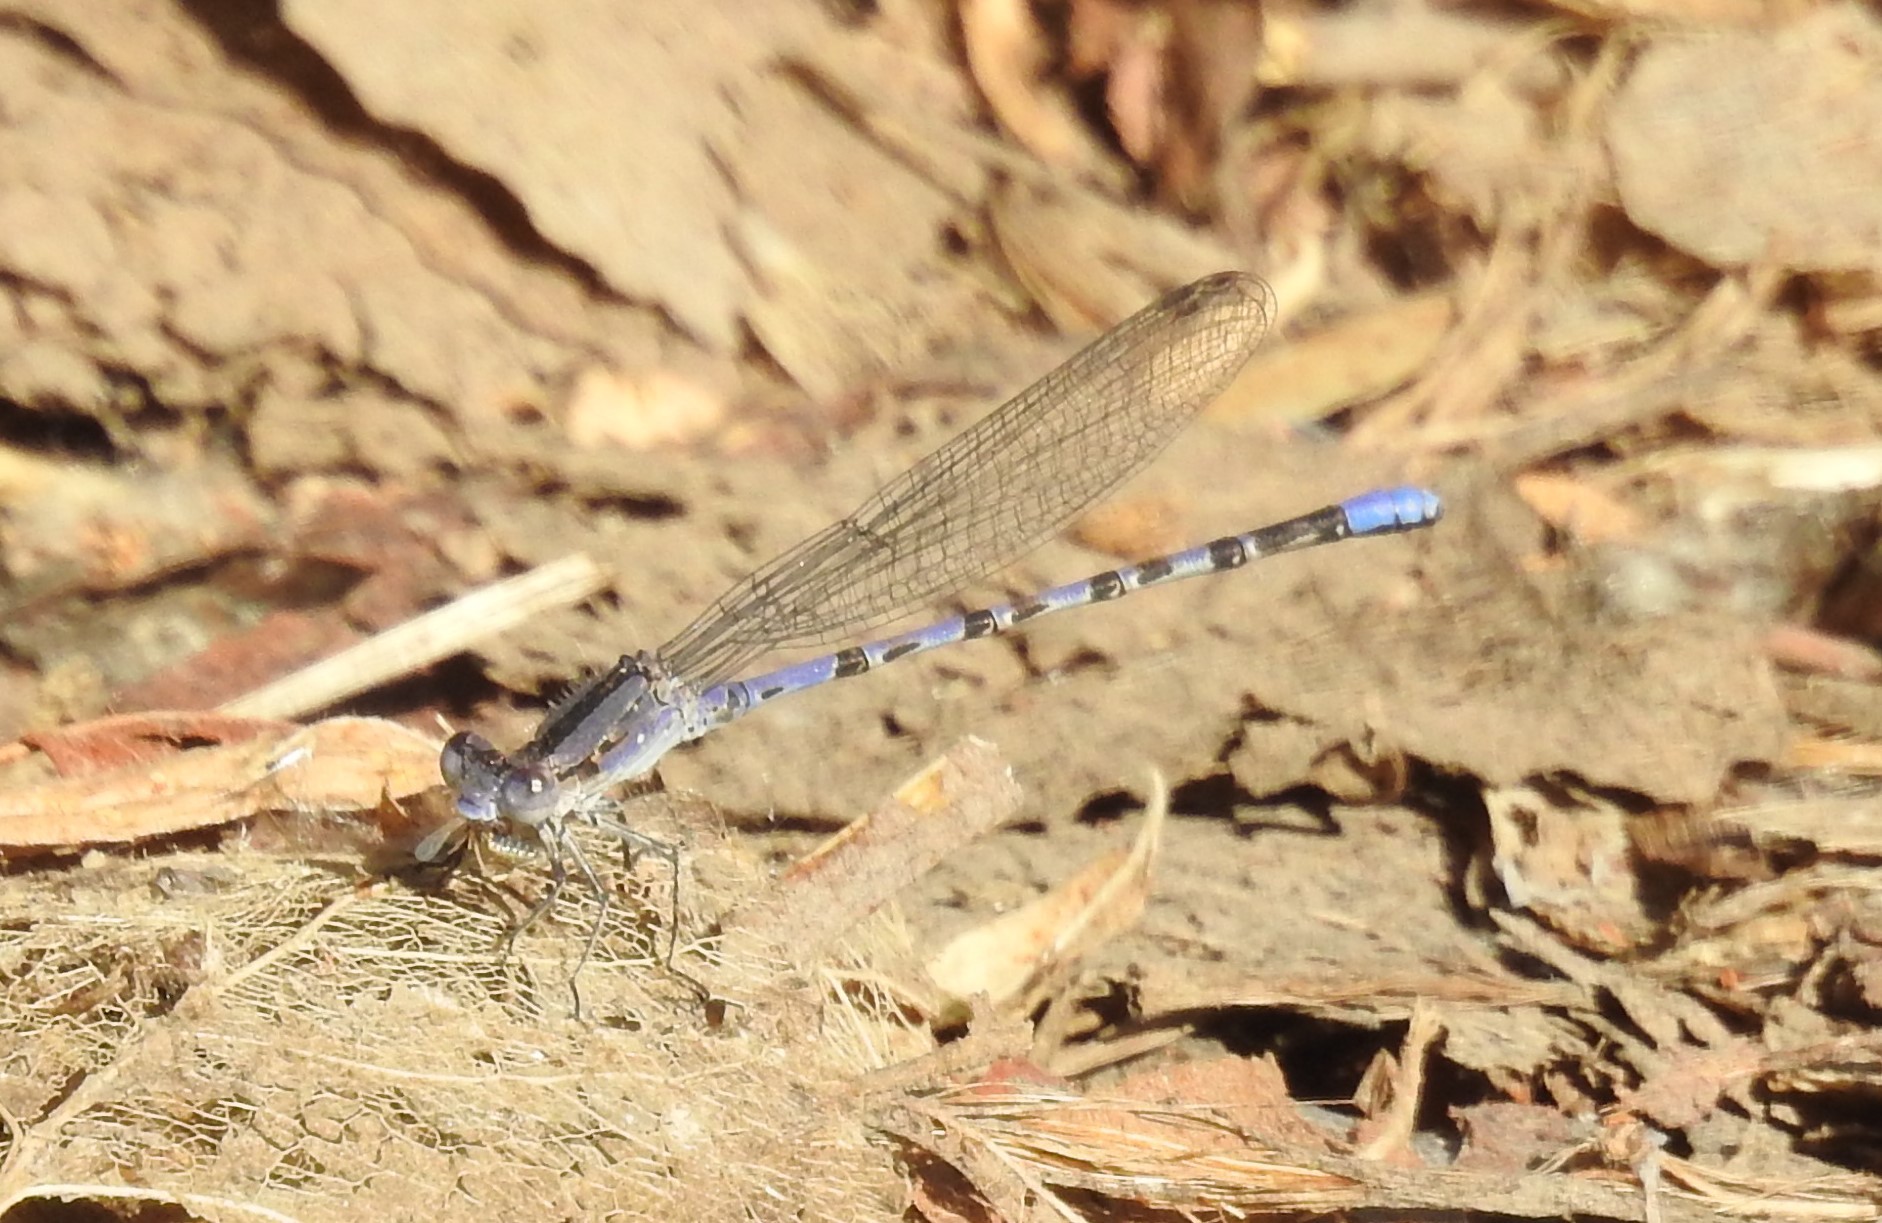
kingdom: Animalia
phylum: Arthropoda
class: Insecta
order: Odonata
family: Coenagrionidae
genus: Argia
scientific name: Argia immunda
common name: Kiowa dancer
